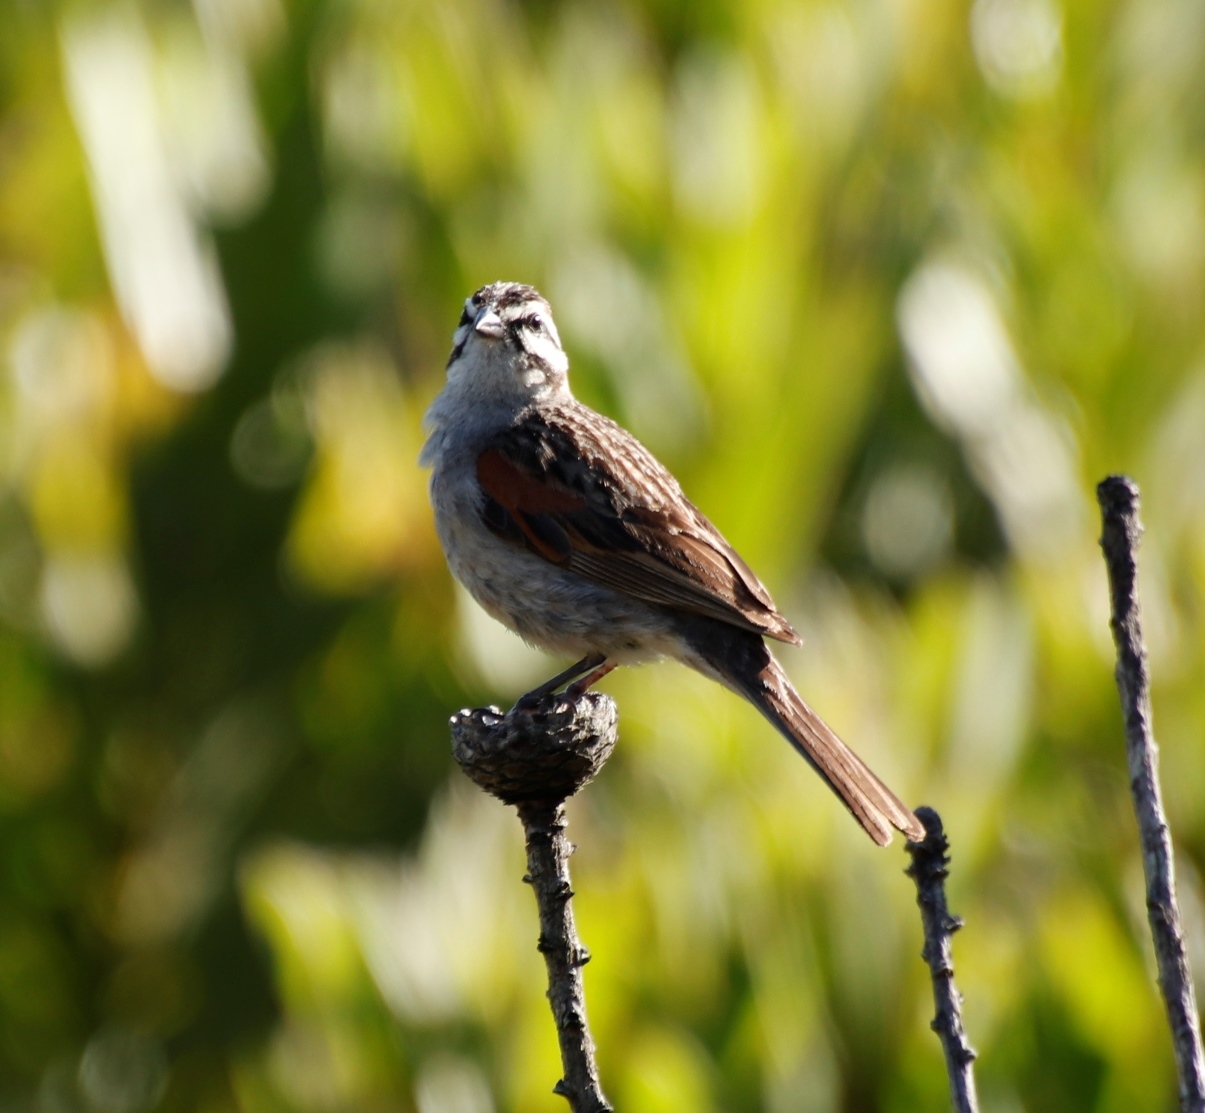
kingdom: Animalia
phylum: Chordata
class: Aves
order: Passeriformes
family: Emberizidae
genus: Emberiza
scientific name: Emberiza capensis
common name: Cape bunting
